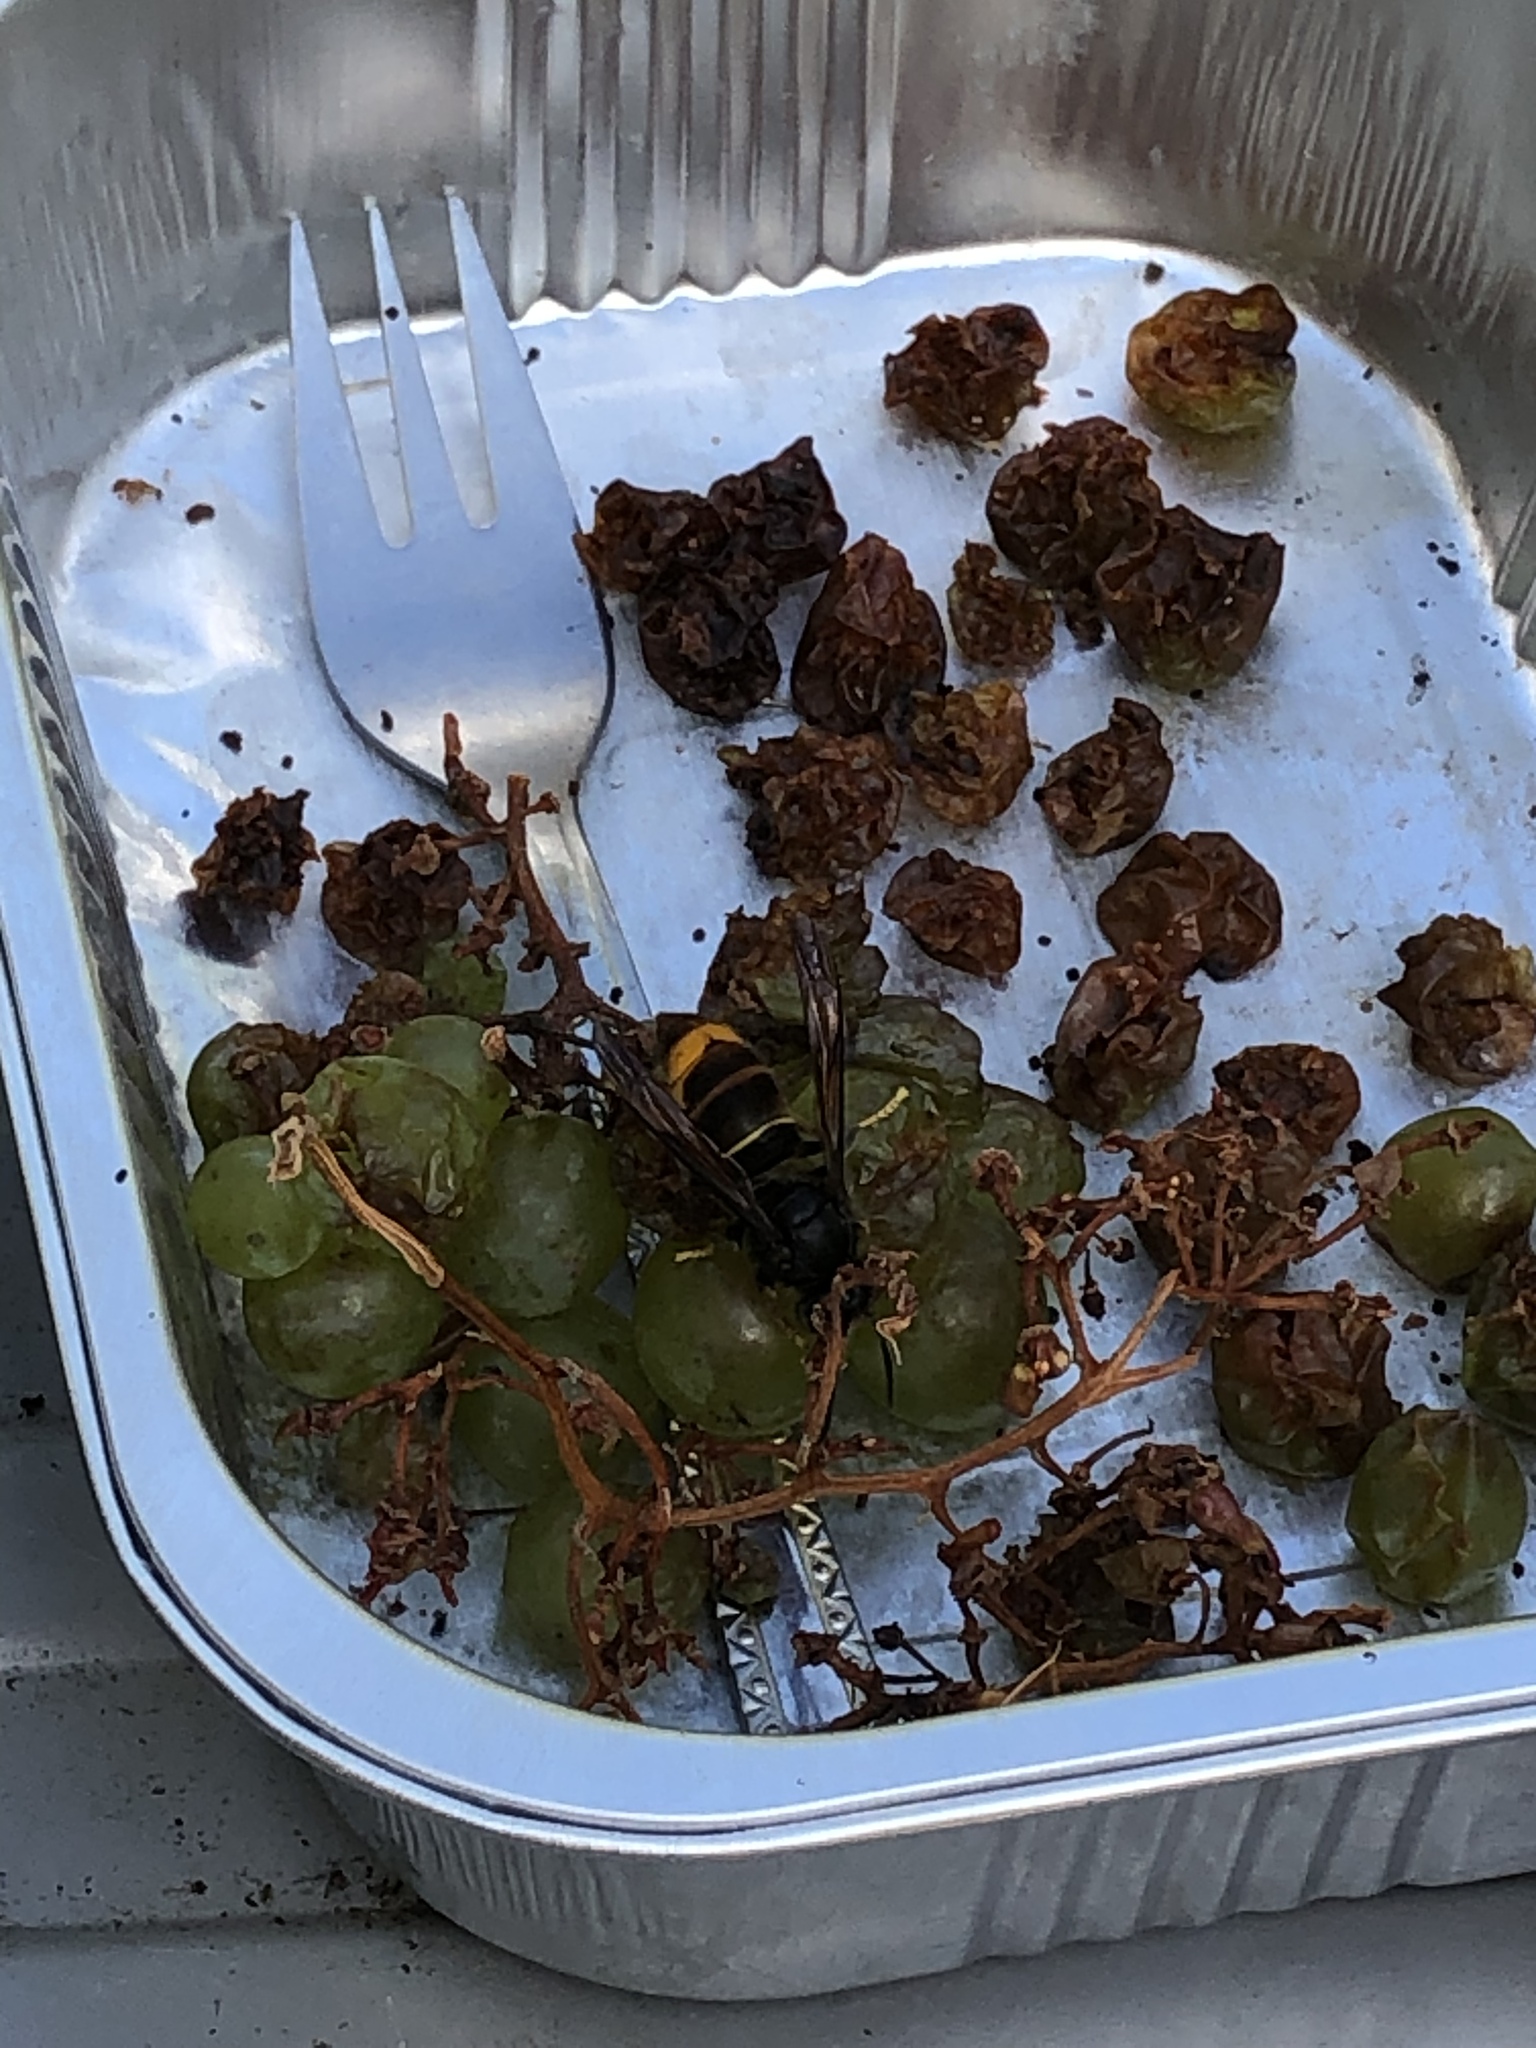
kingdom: Animalia
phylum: Arthropoda
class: Insecta
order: Hymenoptera
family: Vespidae
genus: Vespa
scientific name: Vespa velutina
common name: Asian hornet
